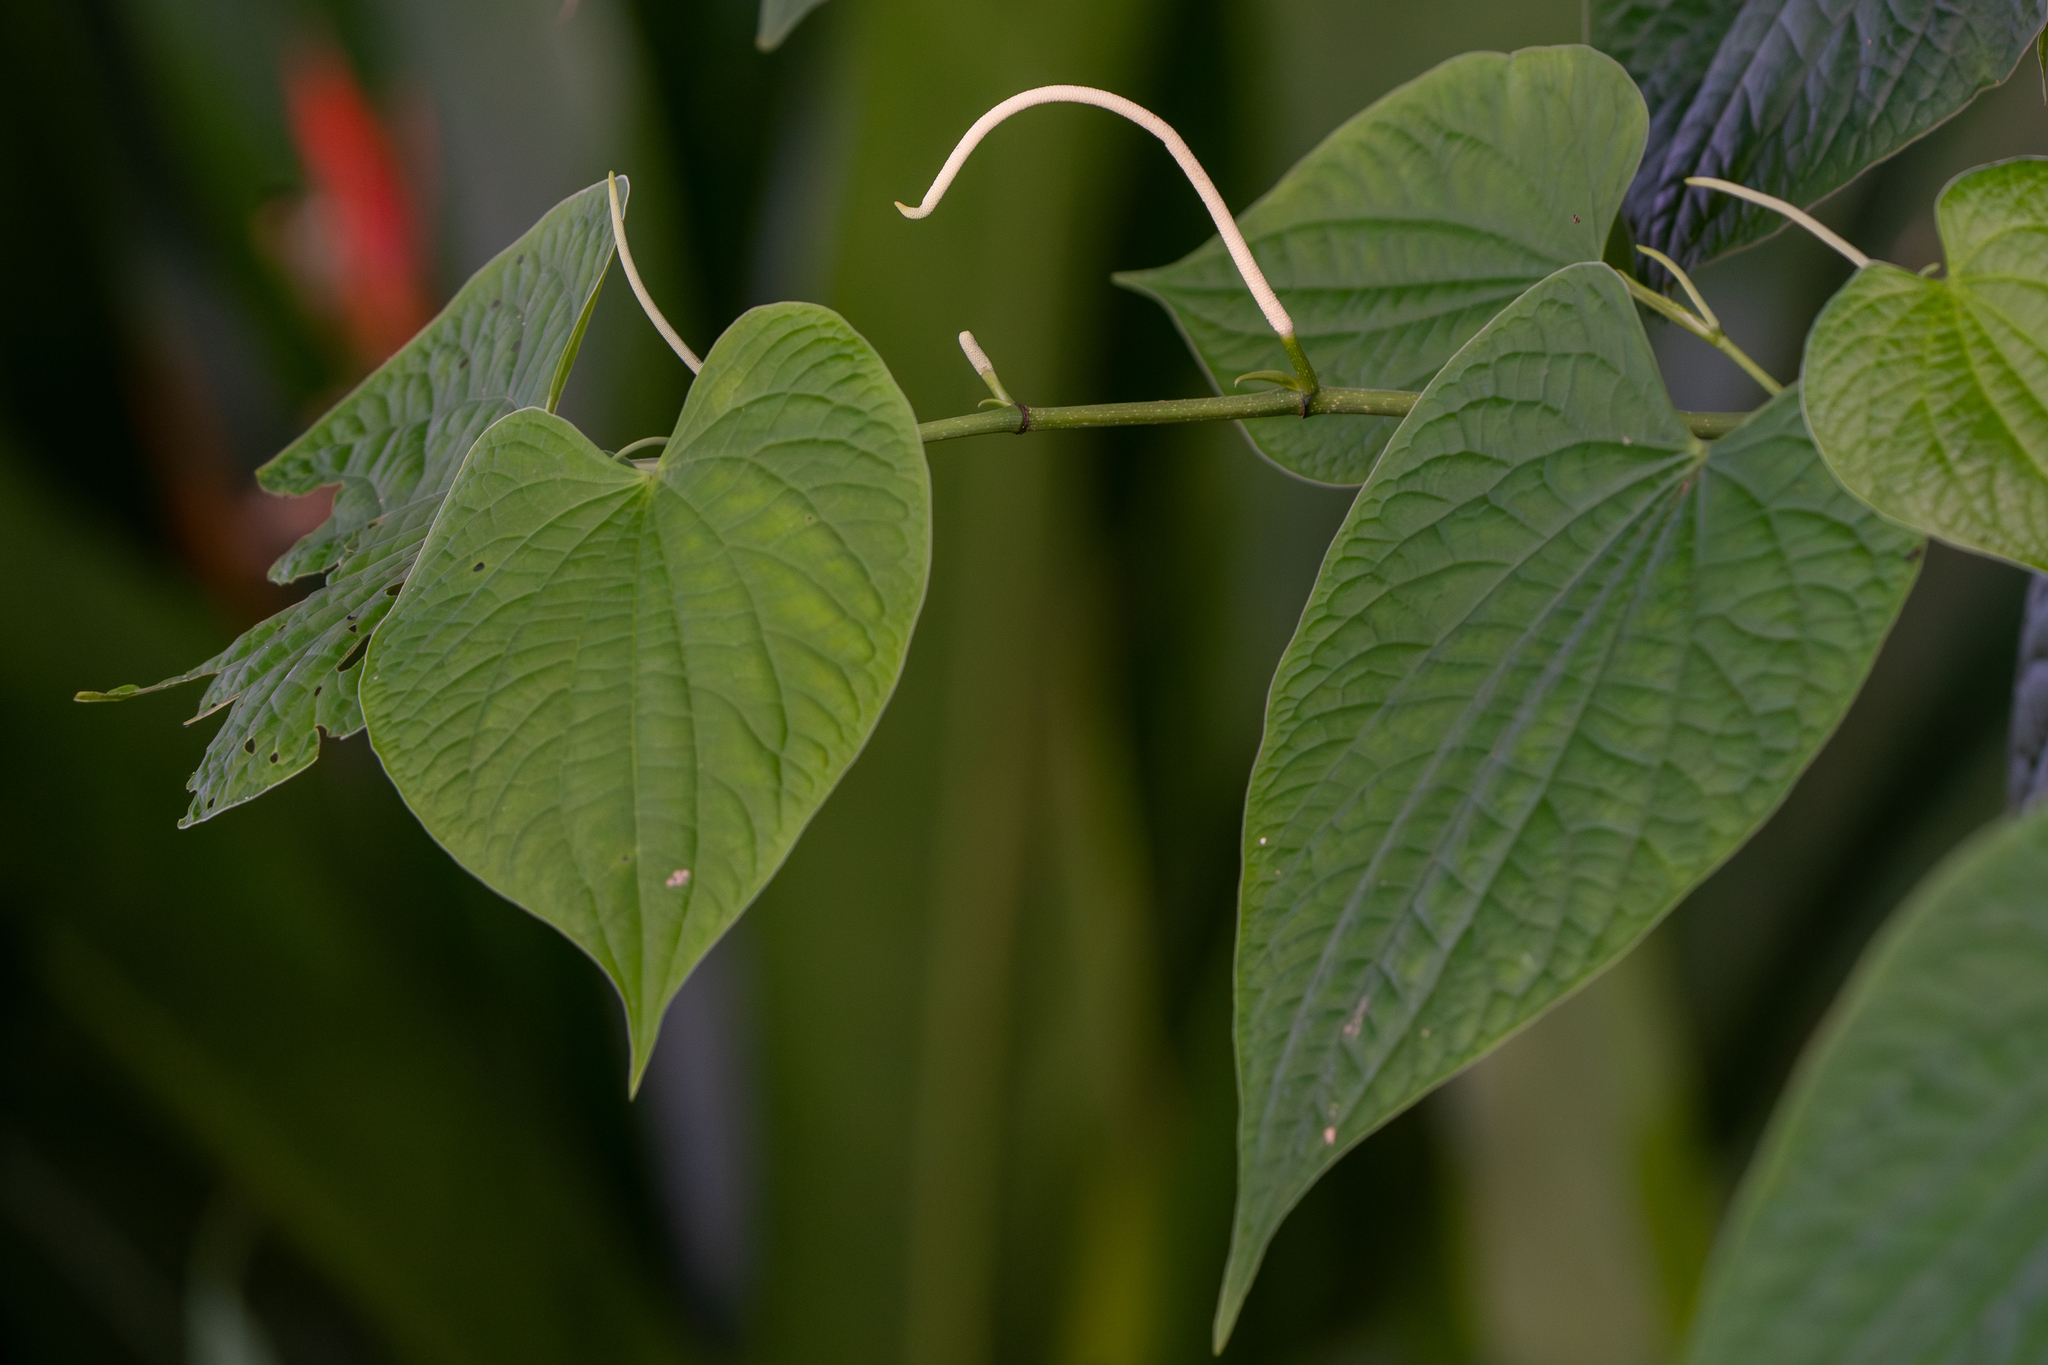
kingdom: Plantae
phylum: Tracheophyta
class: Magnoliopsida
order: Piperales
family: Piperaceae
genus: Piper
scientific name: Piper marginatum
